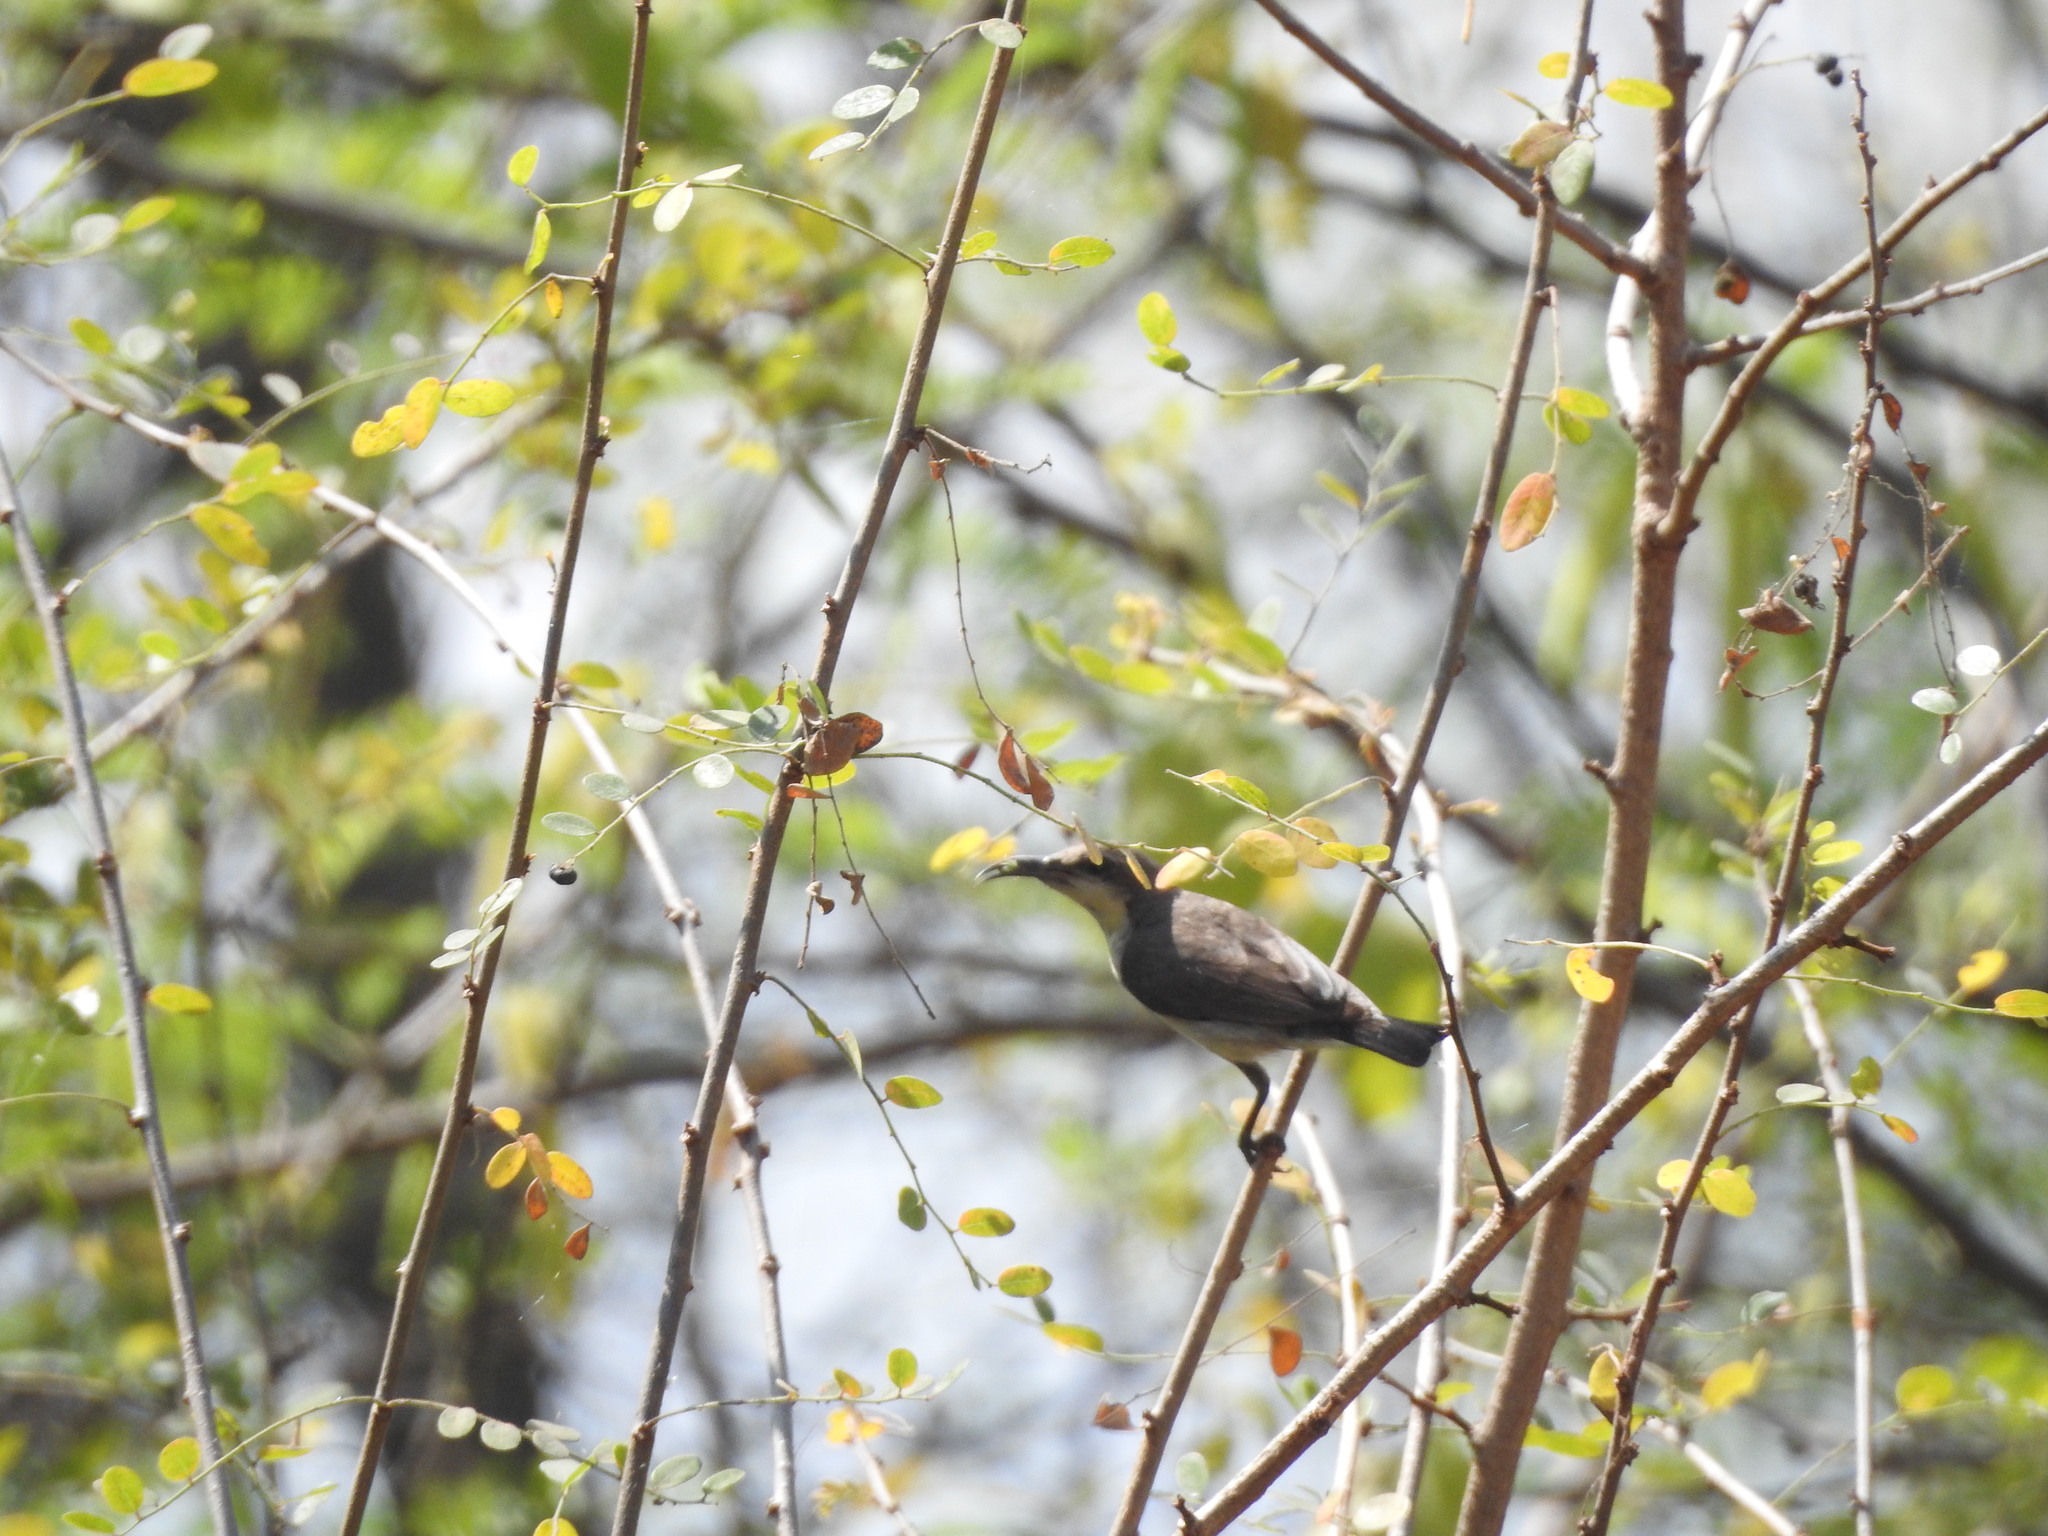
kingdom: Animalia
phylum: Chordata
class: Aves
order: Passeriformes
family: Nectariniidae
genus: Cinnyris
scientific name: Cinnyris asiaticus
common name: Purple sunbird
